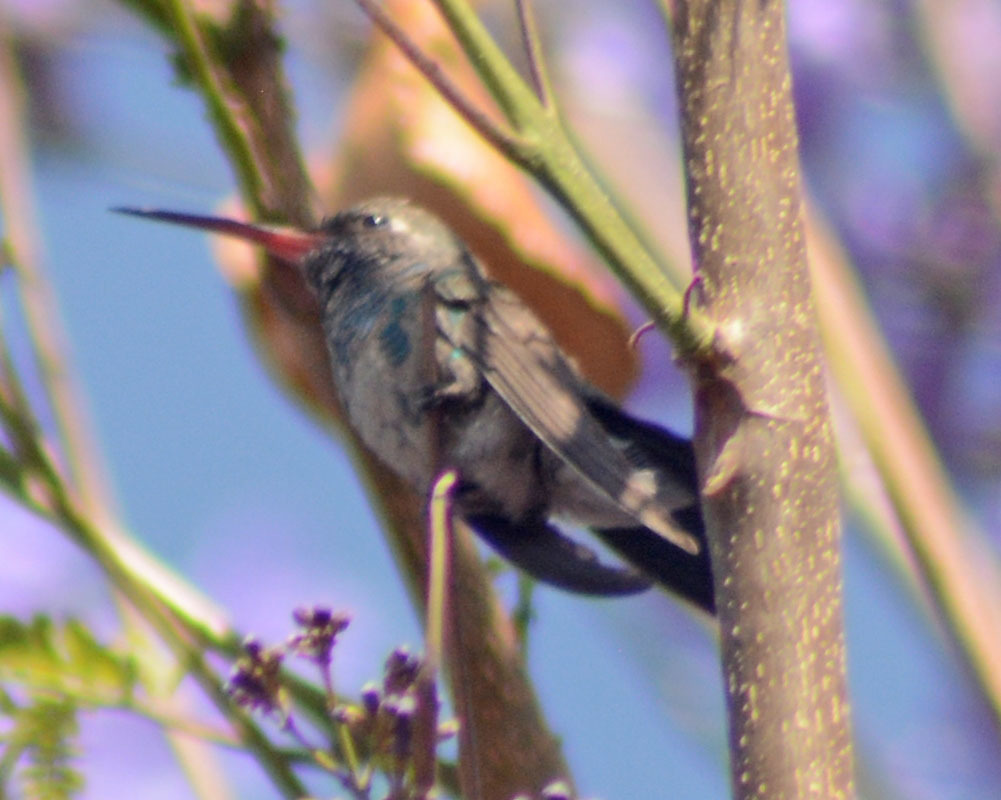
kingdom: Animalia
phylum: Chordata
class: Aves
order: Apodiformes
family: Trochilidae
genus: Cynanthus
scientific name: Cynanthus latirostris
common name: Broad-billed hummingbird
